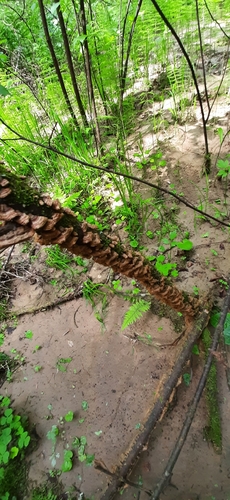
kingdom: Fungi
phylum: Basidiomycota
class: Agaricomycetes
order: Hymenochaetales
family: Hymenochaetaceae
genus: Hydnoporia
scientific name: Hydnoporia tabacina
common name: Willow glue
